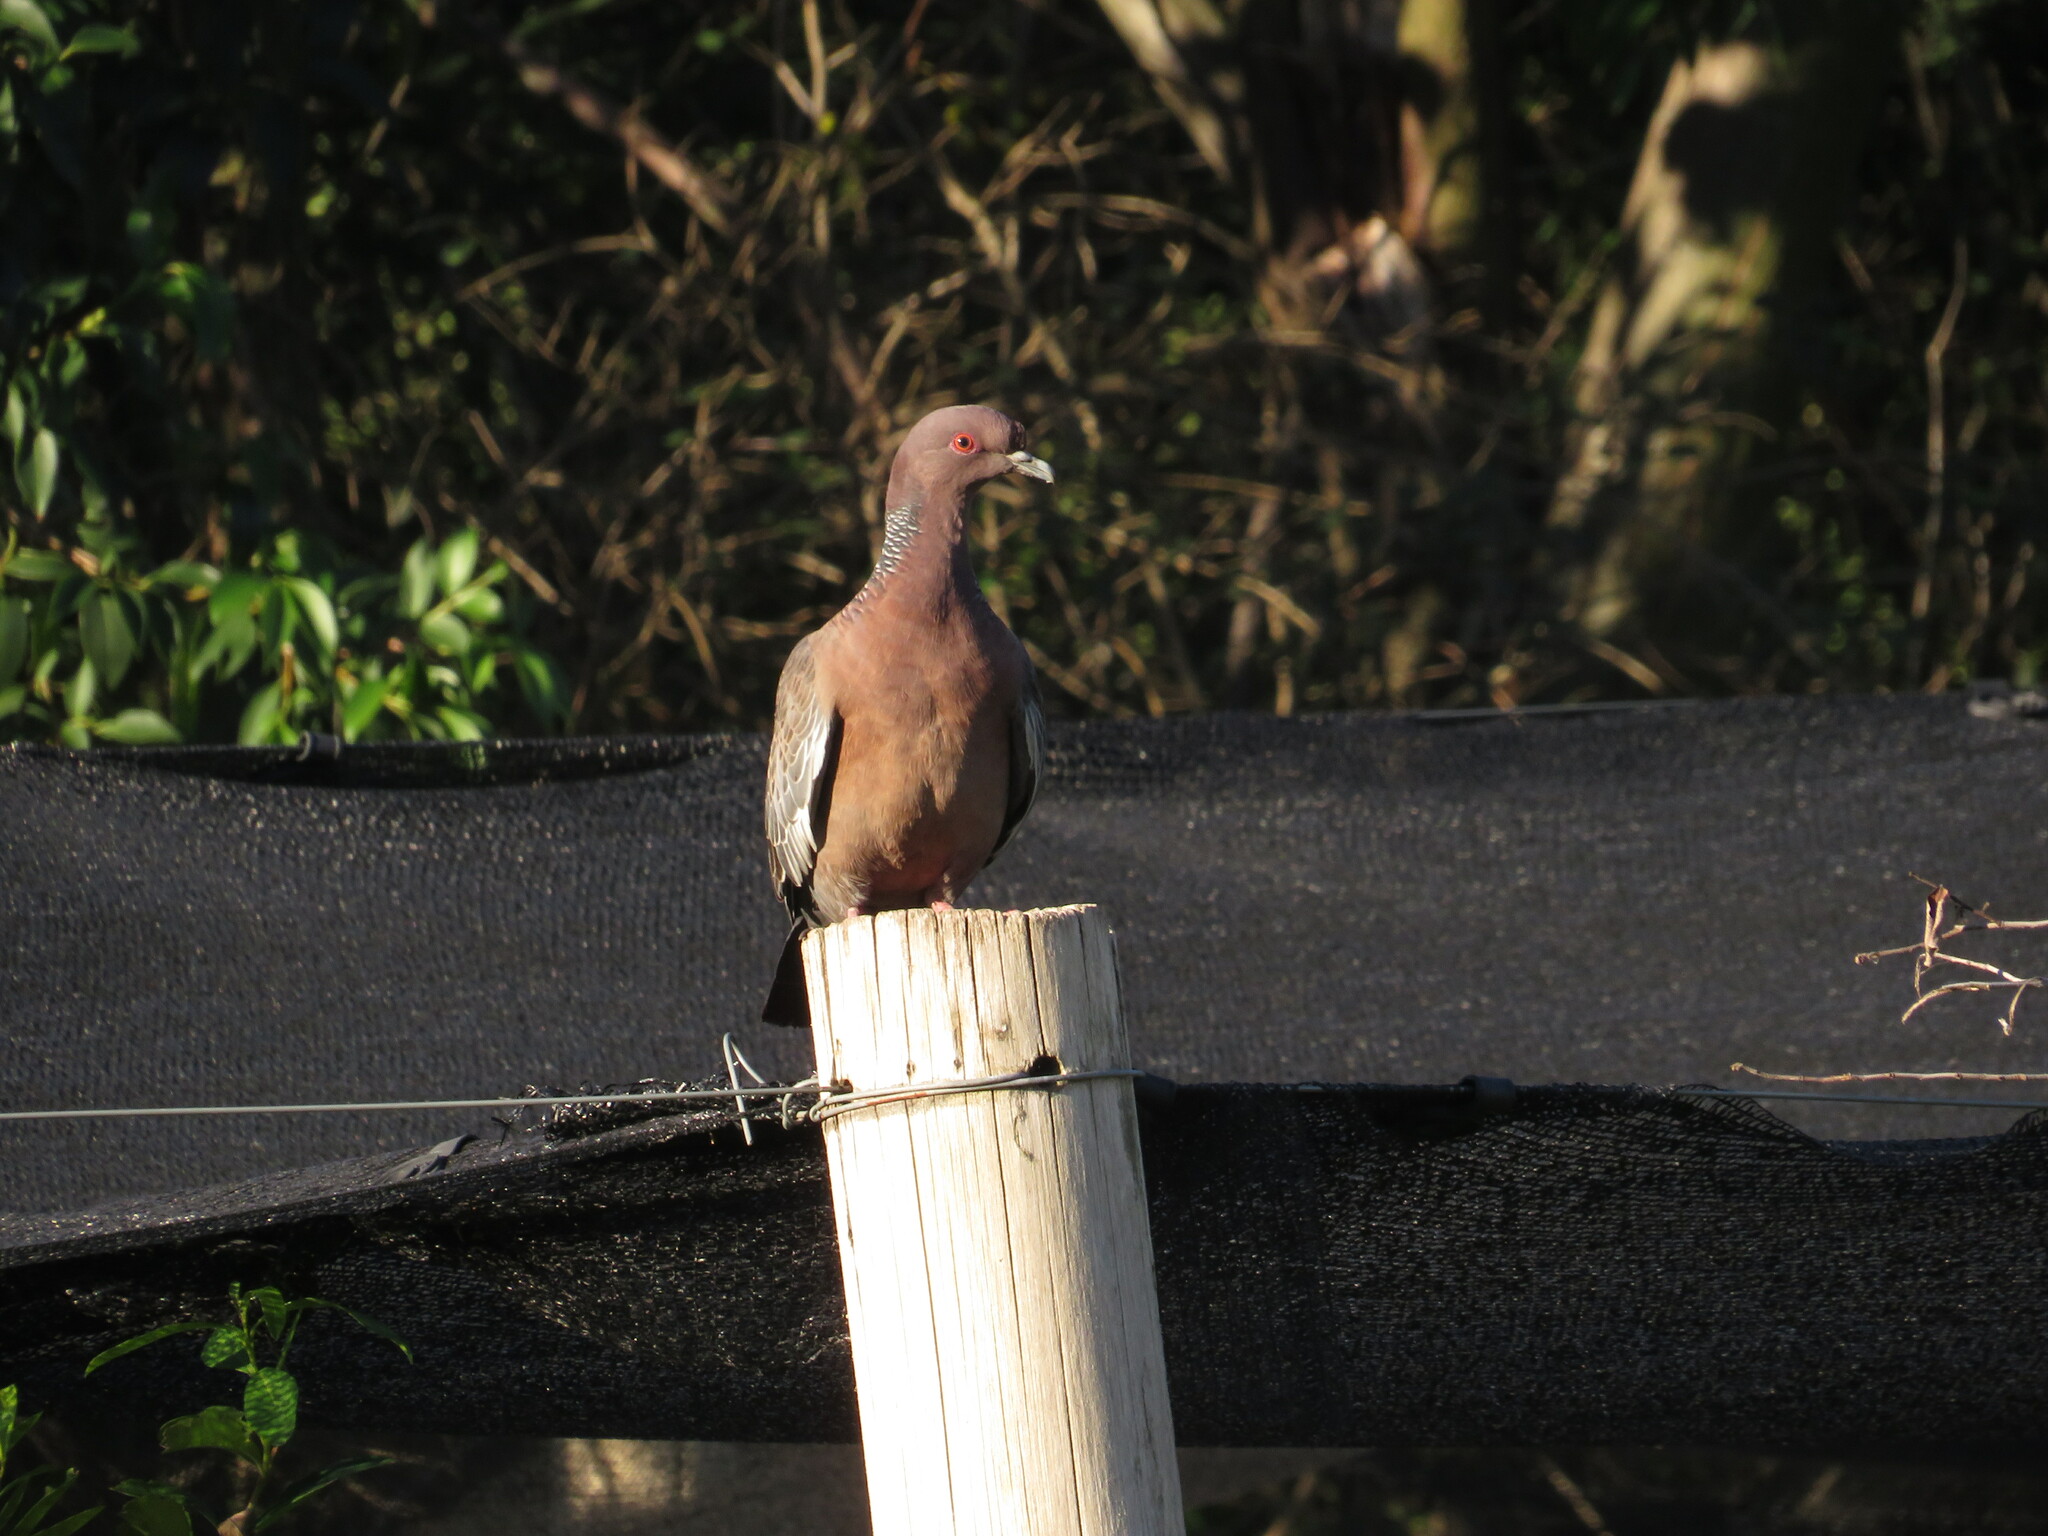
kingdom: Animalia
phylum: Chordata
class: Aves
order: Columbiformes
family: Columbidae
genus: Patagioenas
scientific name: Patagioenas picazuro
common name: Picazuro pigeon
